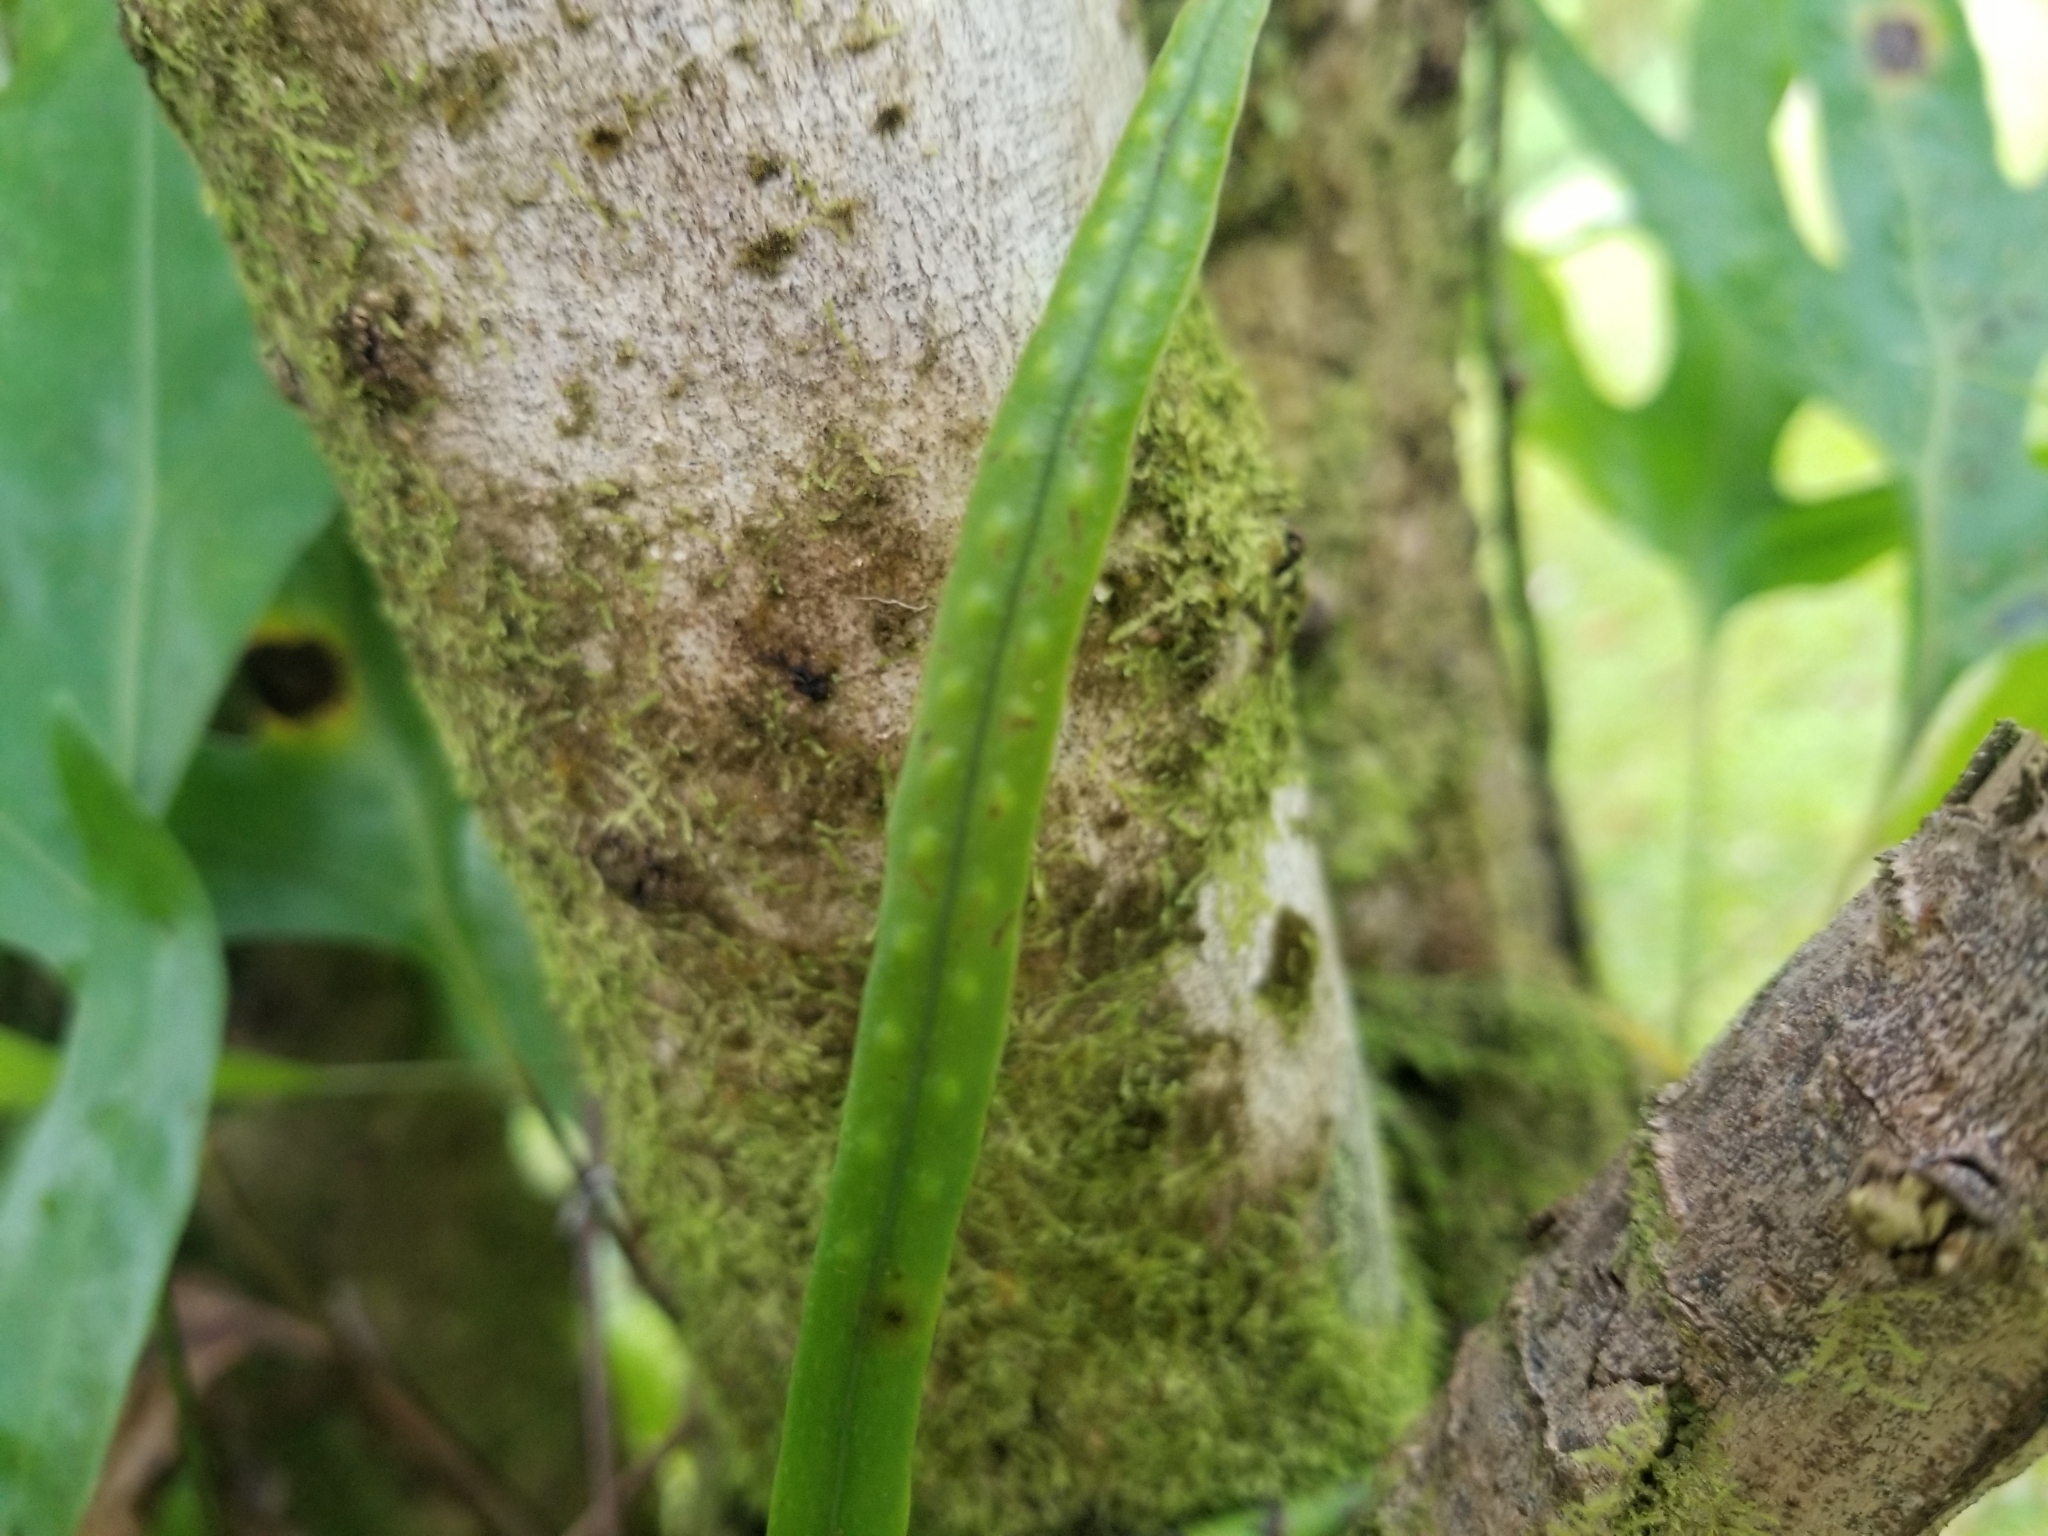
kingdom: Plantae
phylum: Tracheophyta
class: Polypodiopsida
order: Polypodiales
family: Polypodiaceae
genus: Lepisorus
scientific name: Lepisorus thunbergianus
